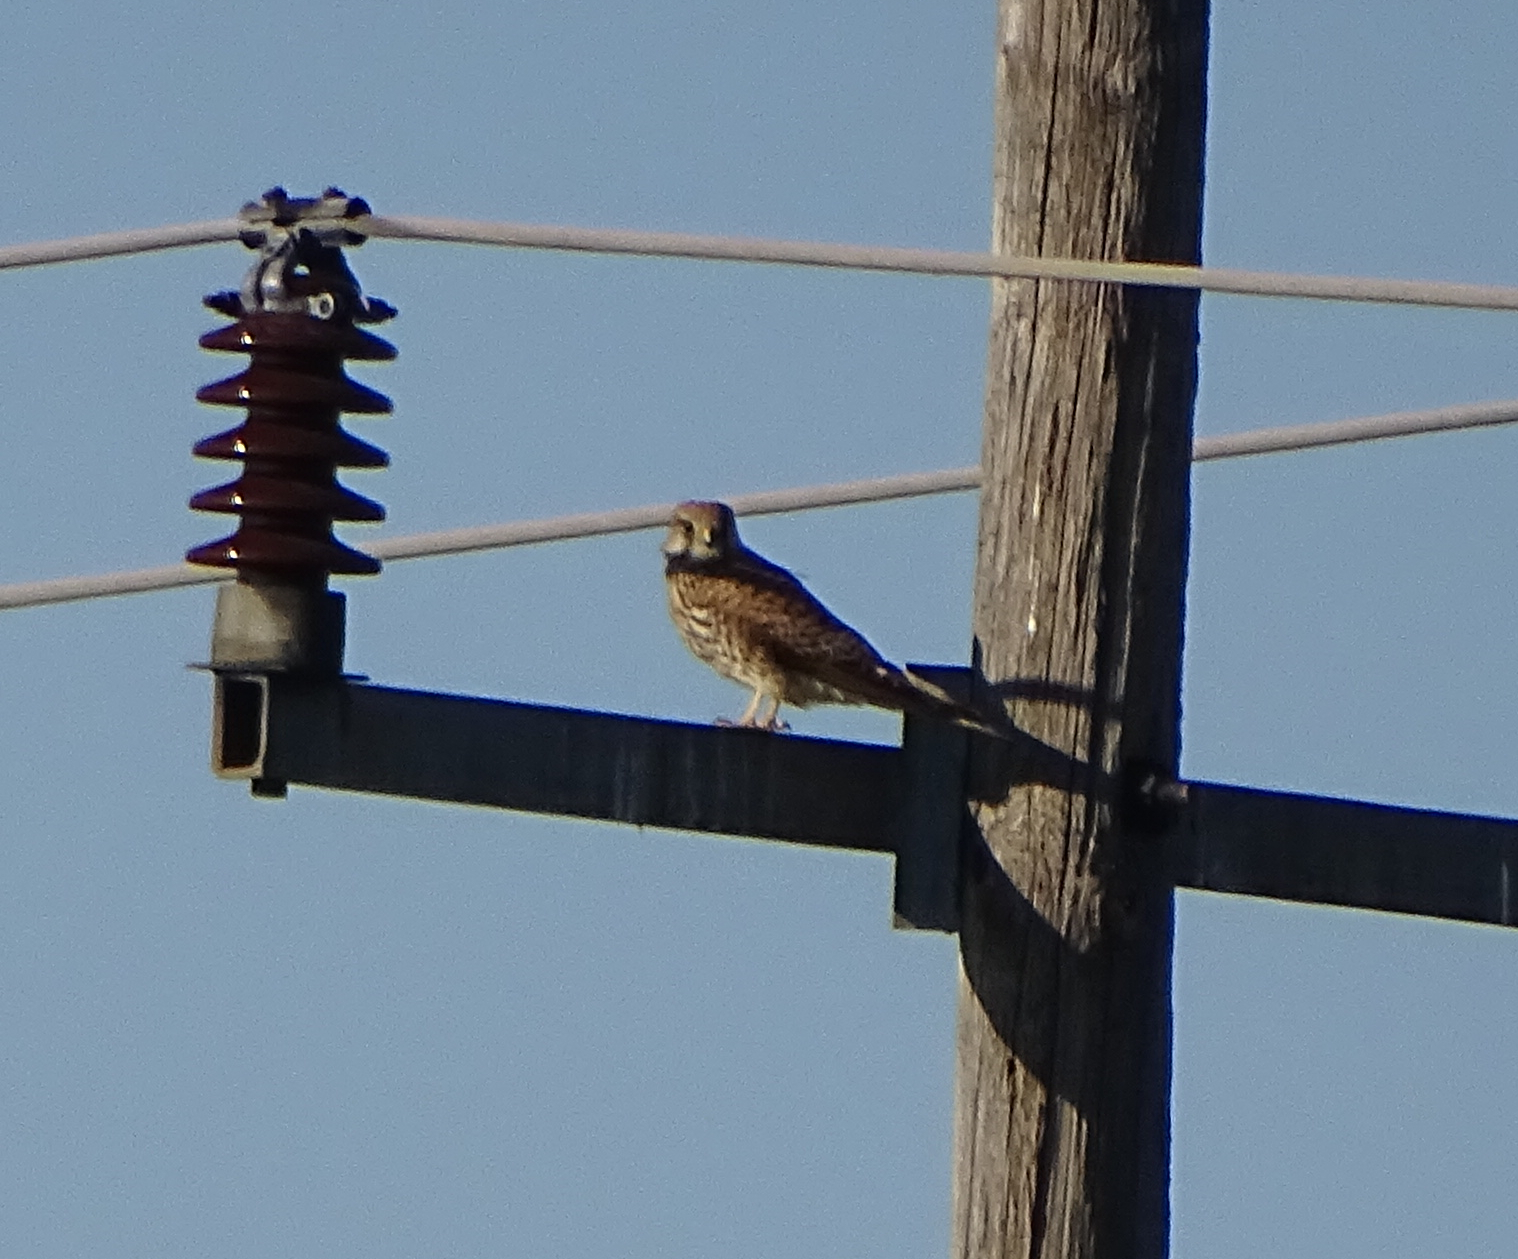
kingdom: Animalia
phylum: Chordata
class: Aves
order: Falconiformes
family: Falconidae
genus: Falco
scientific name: Falco tinnunculus
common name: Common kestrel
